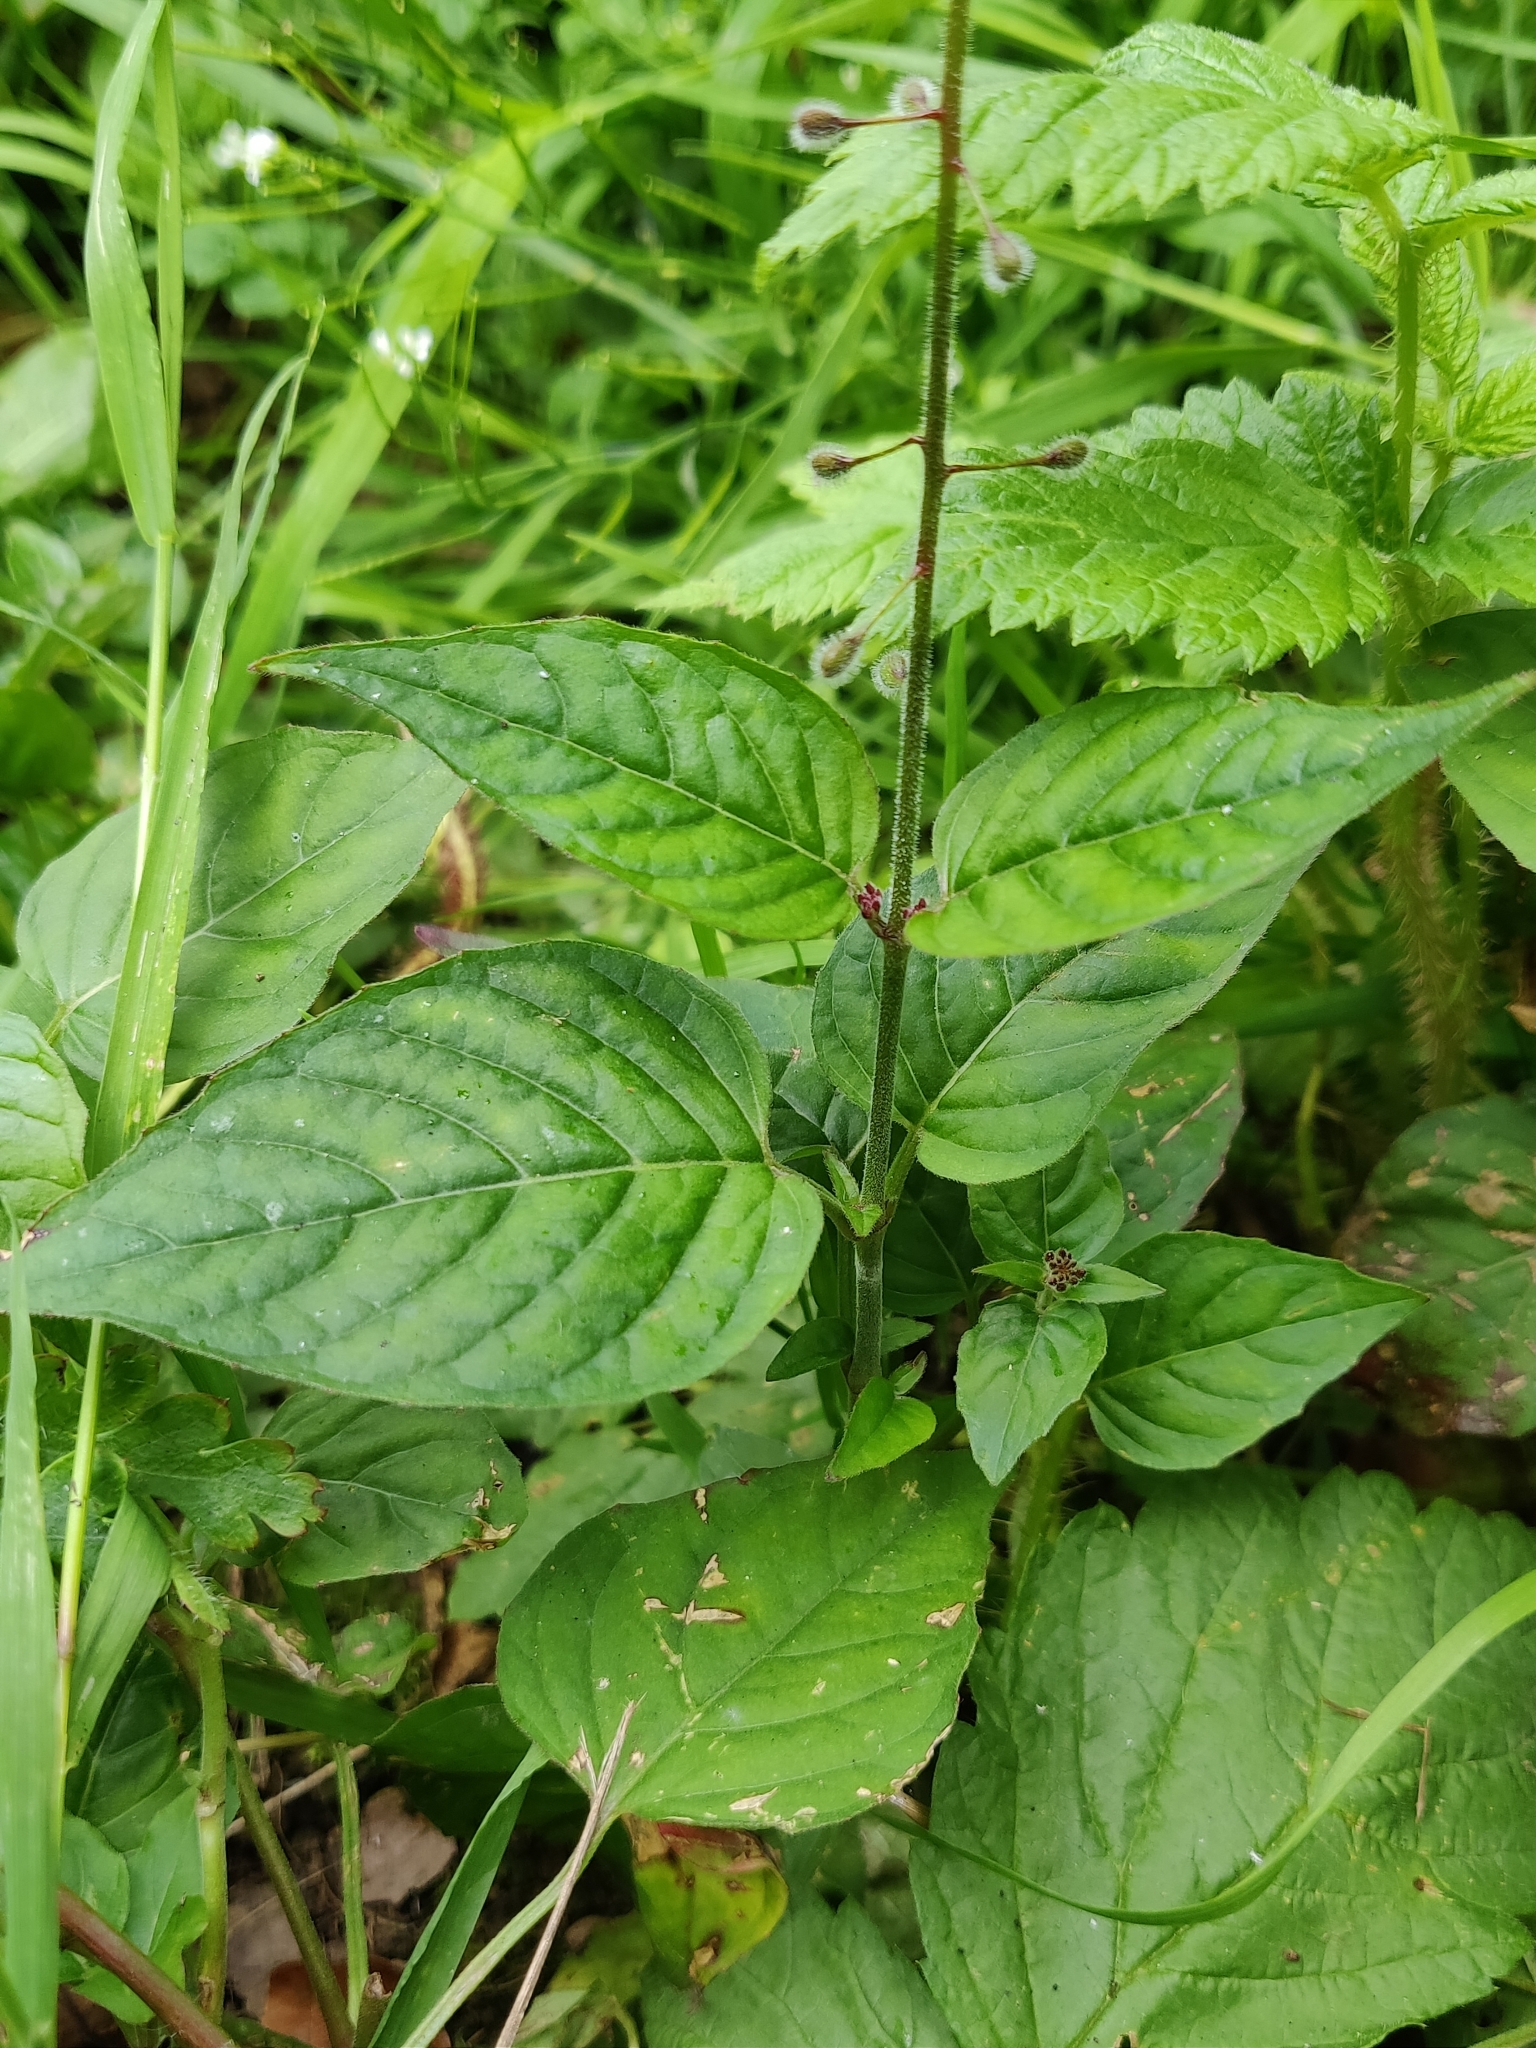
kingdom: Plantae
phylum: Tracheophyta
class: Magnoliopsida
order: Myrtales
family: Onagraceae
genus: Circaea
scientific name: Circaea lutetiana
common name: Enchanter's-nightshade
